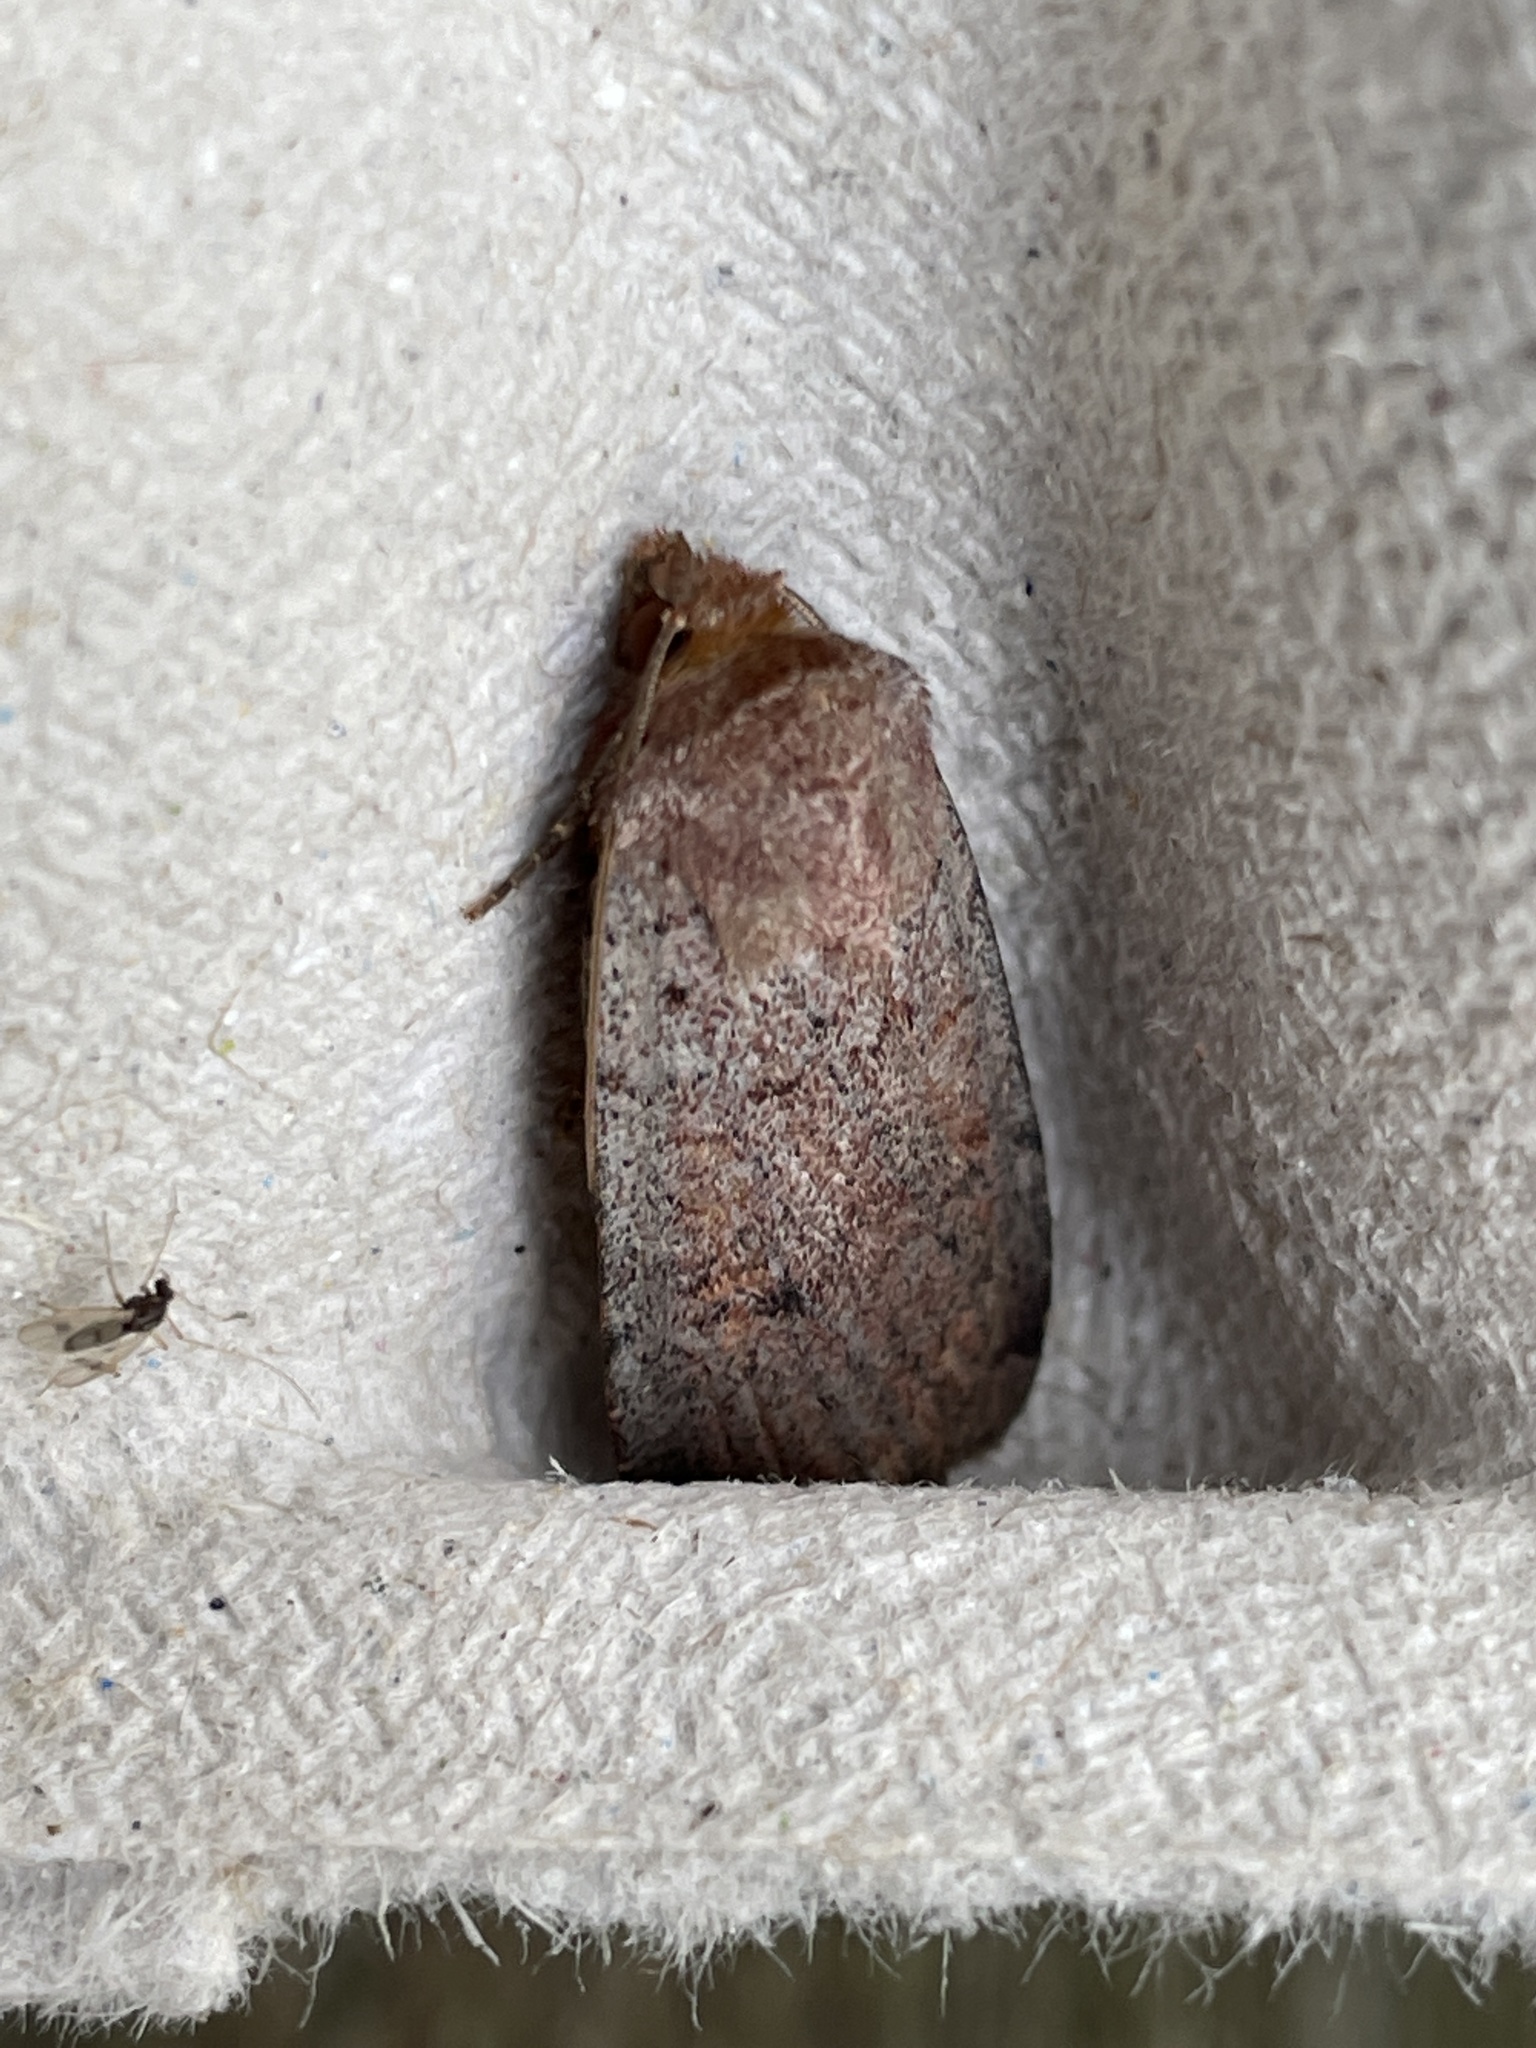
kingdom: Animalia
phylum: Arthropoda
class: Insecta
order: Lepidoptera
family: Noctuidae
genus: Protolampra
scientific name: Protolampra sobrina
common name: Cousin german
